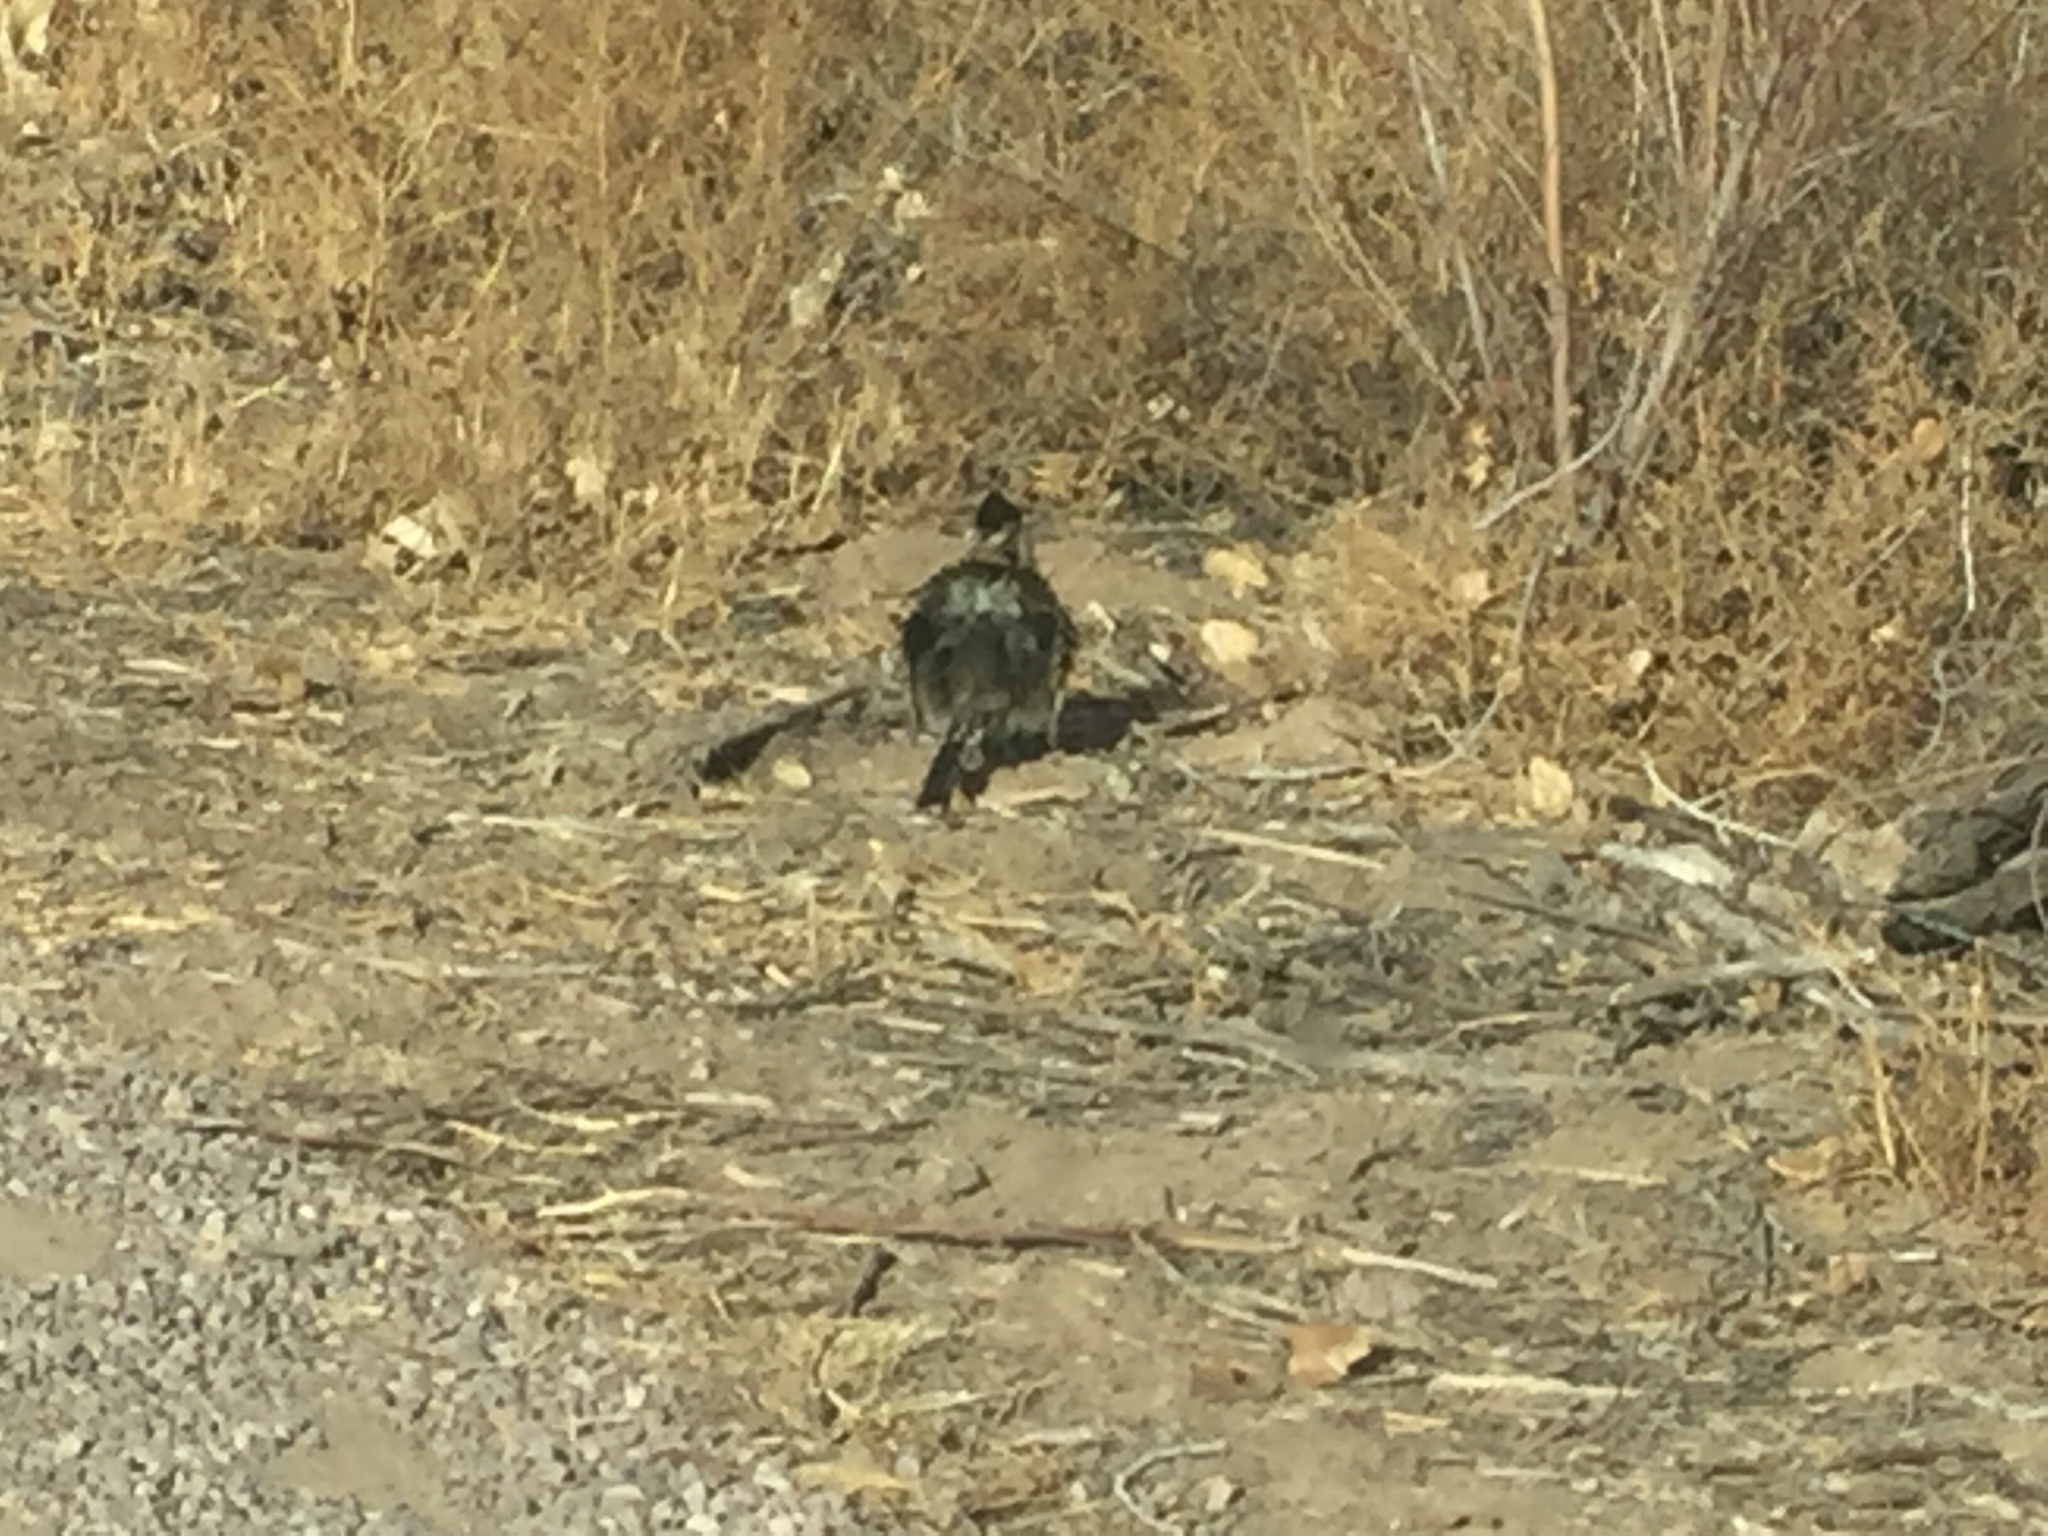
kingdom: Animalia
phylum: Chordata
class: Aves
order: Cuculiformes
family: Cuculidae
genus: Geococcyx
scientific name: Geococcyx californianus
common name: Greater roadrunner
